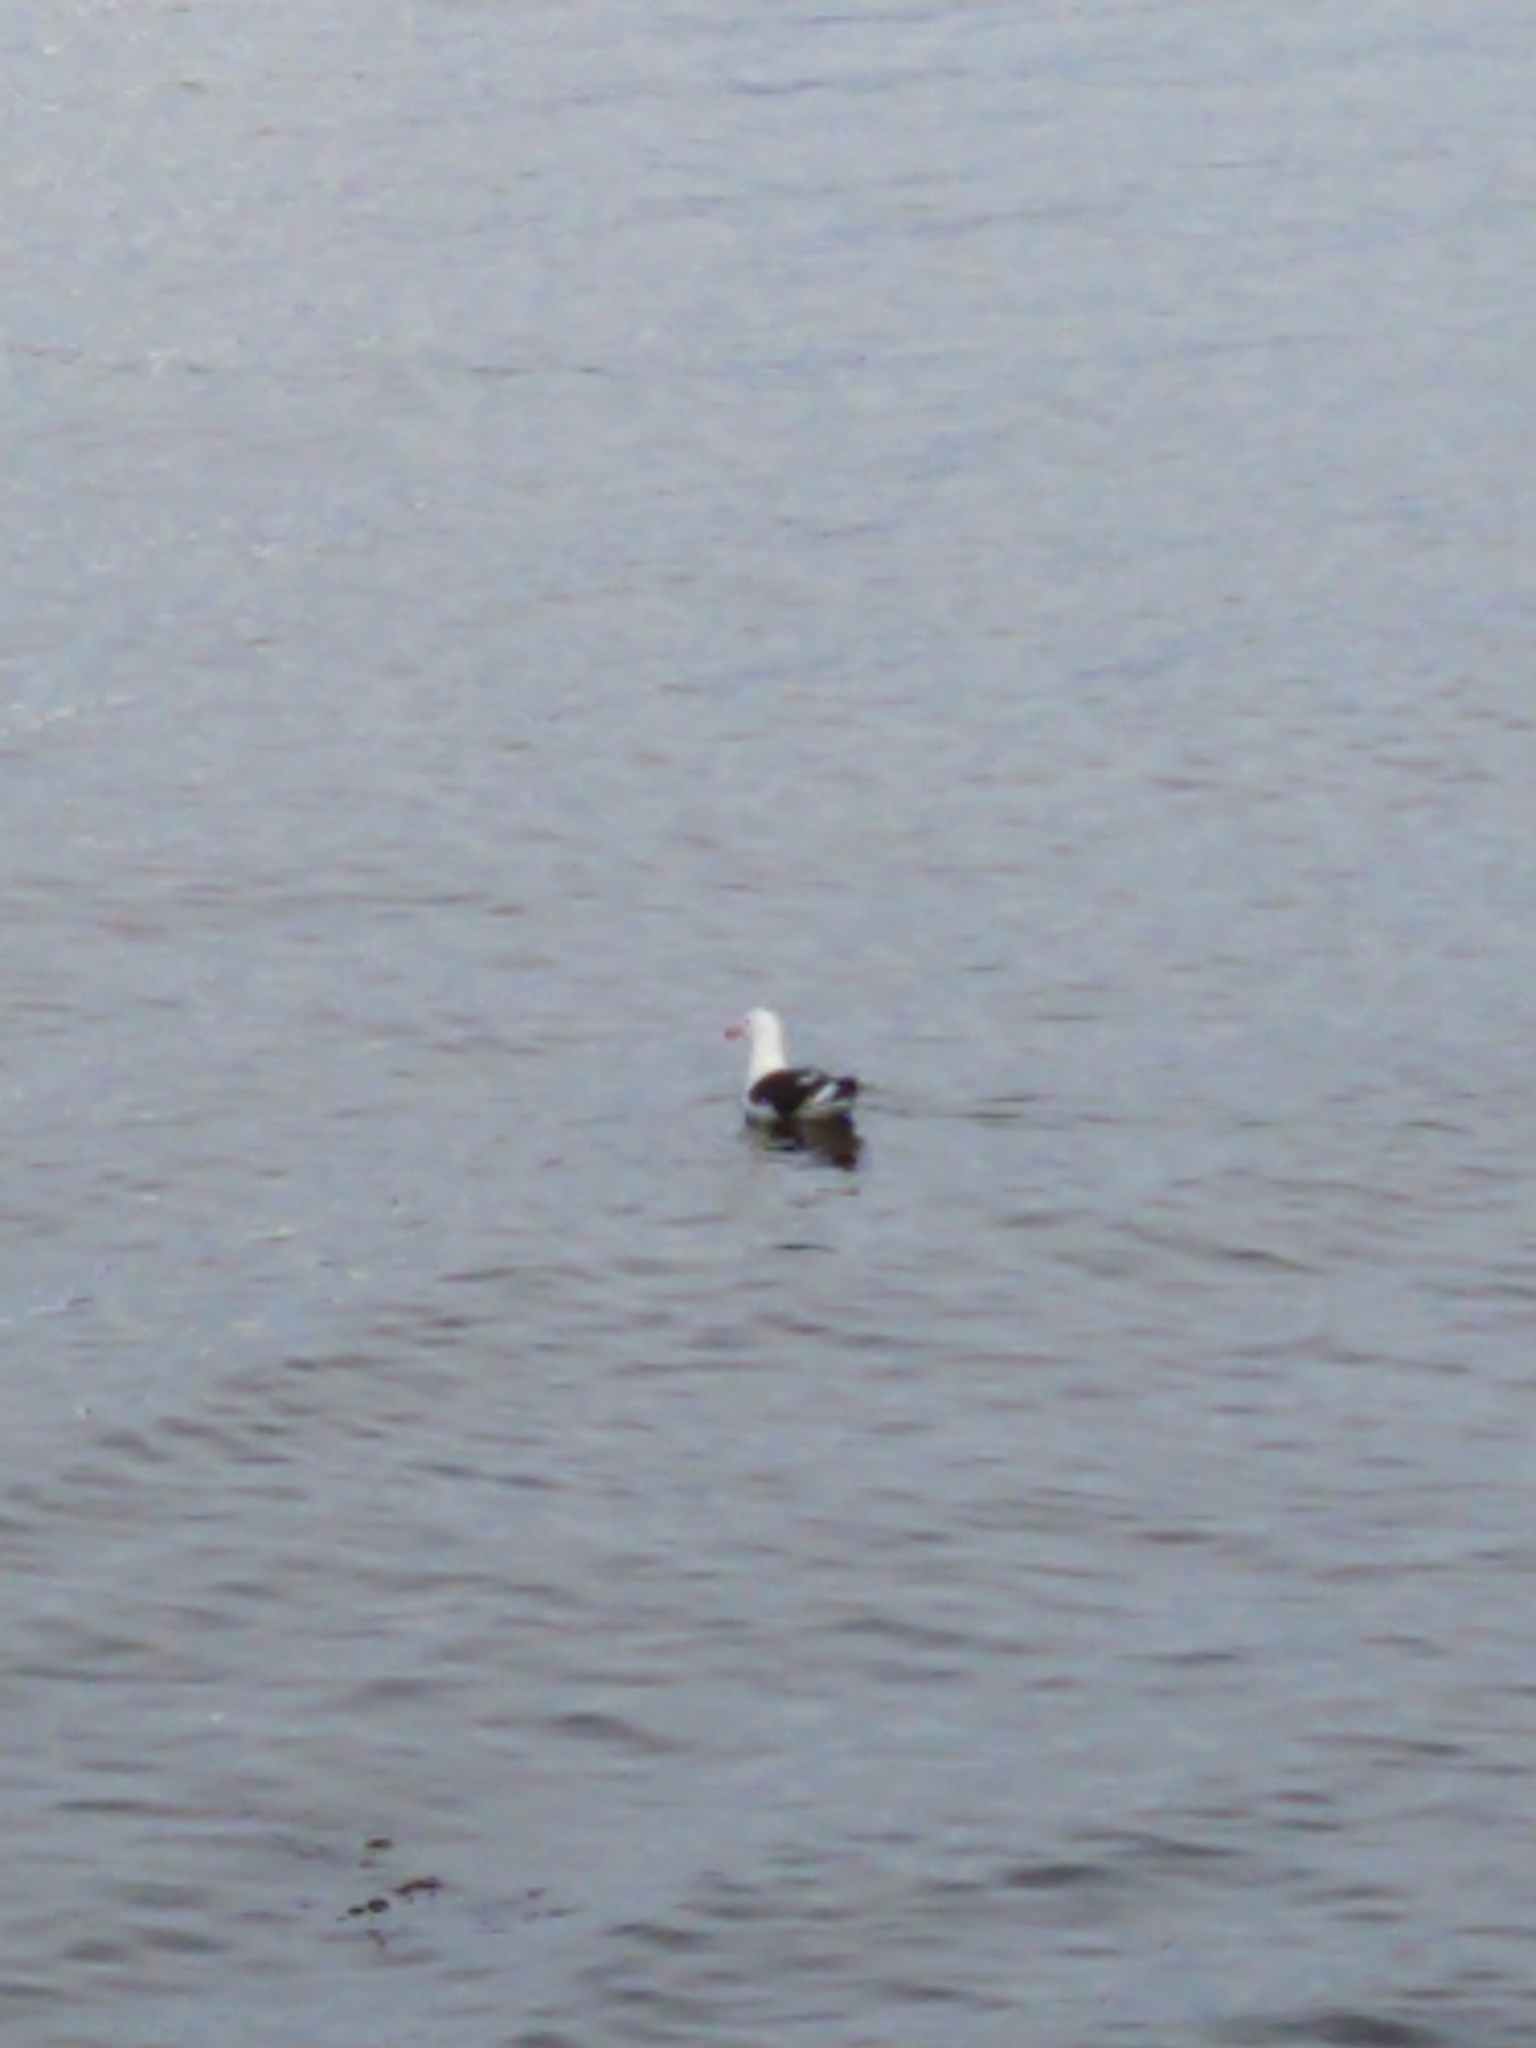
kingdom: Animalia
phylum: Chordata
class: Aves
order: Charadriiformes
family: Laridae
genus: Larus
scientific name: Larus dominicanus
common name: Kelp gull
